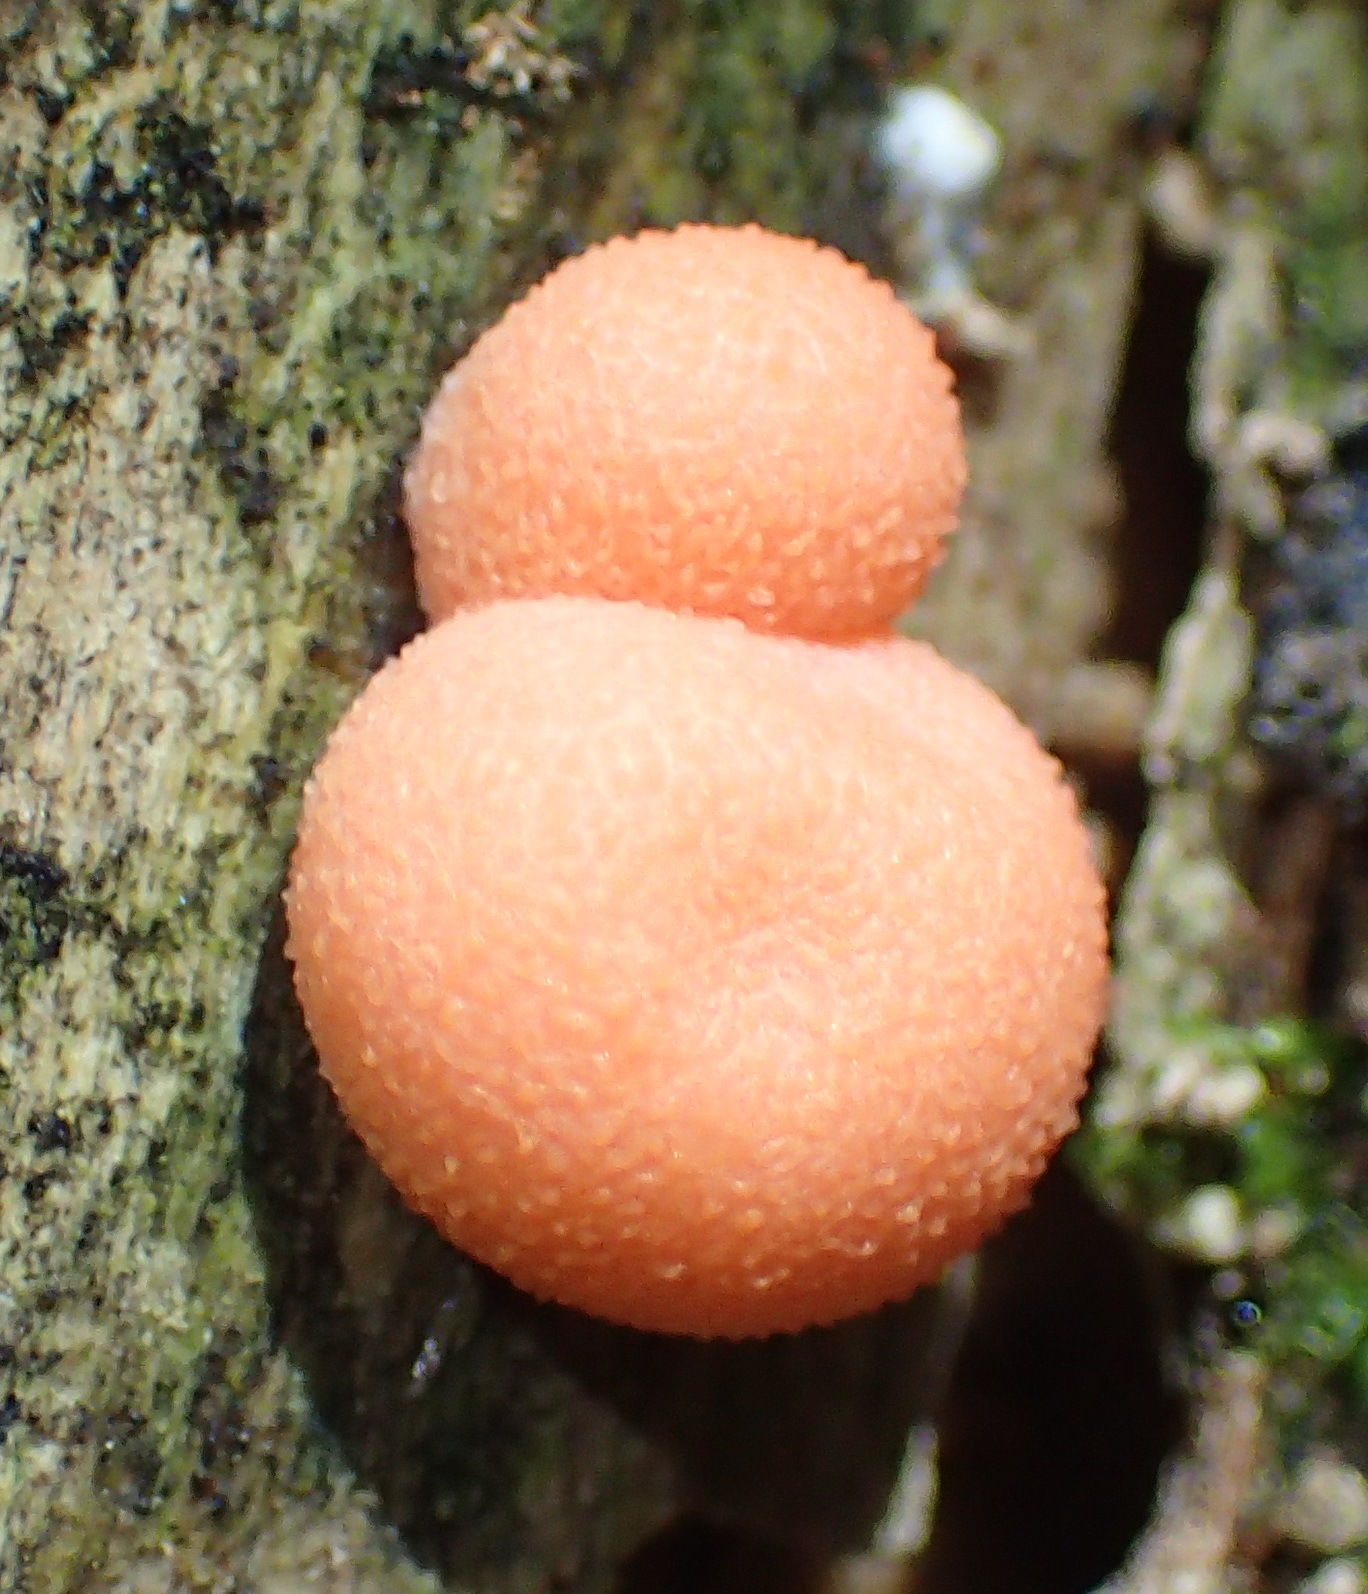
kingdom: Protozoa
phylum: Mycetozoa
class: Myxomycetes
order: Cribrariales
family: Tubiferaceae
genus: Lycogala
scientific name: Lycogala epidendrum
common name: Wolf's milk
